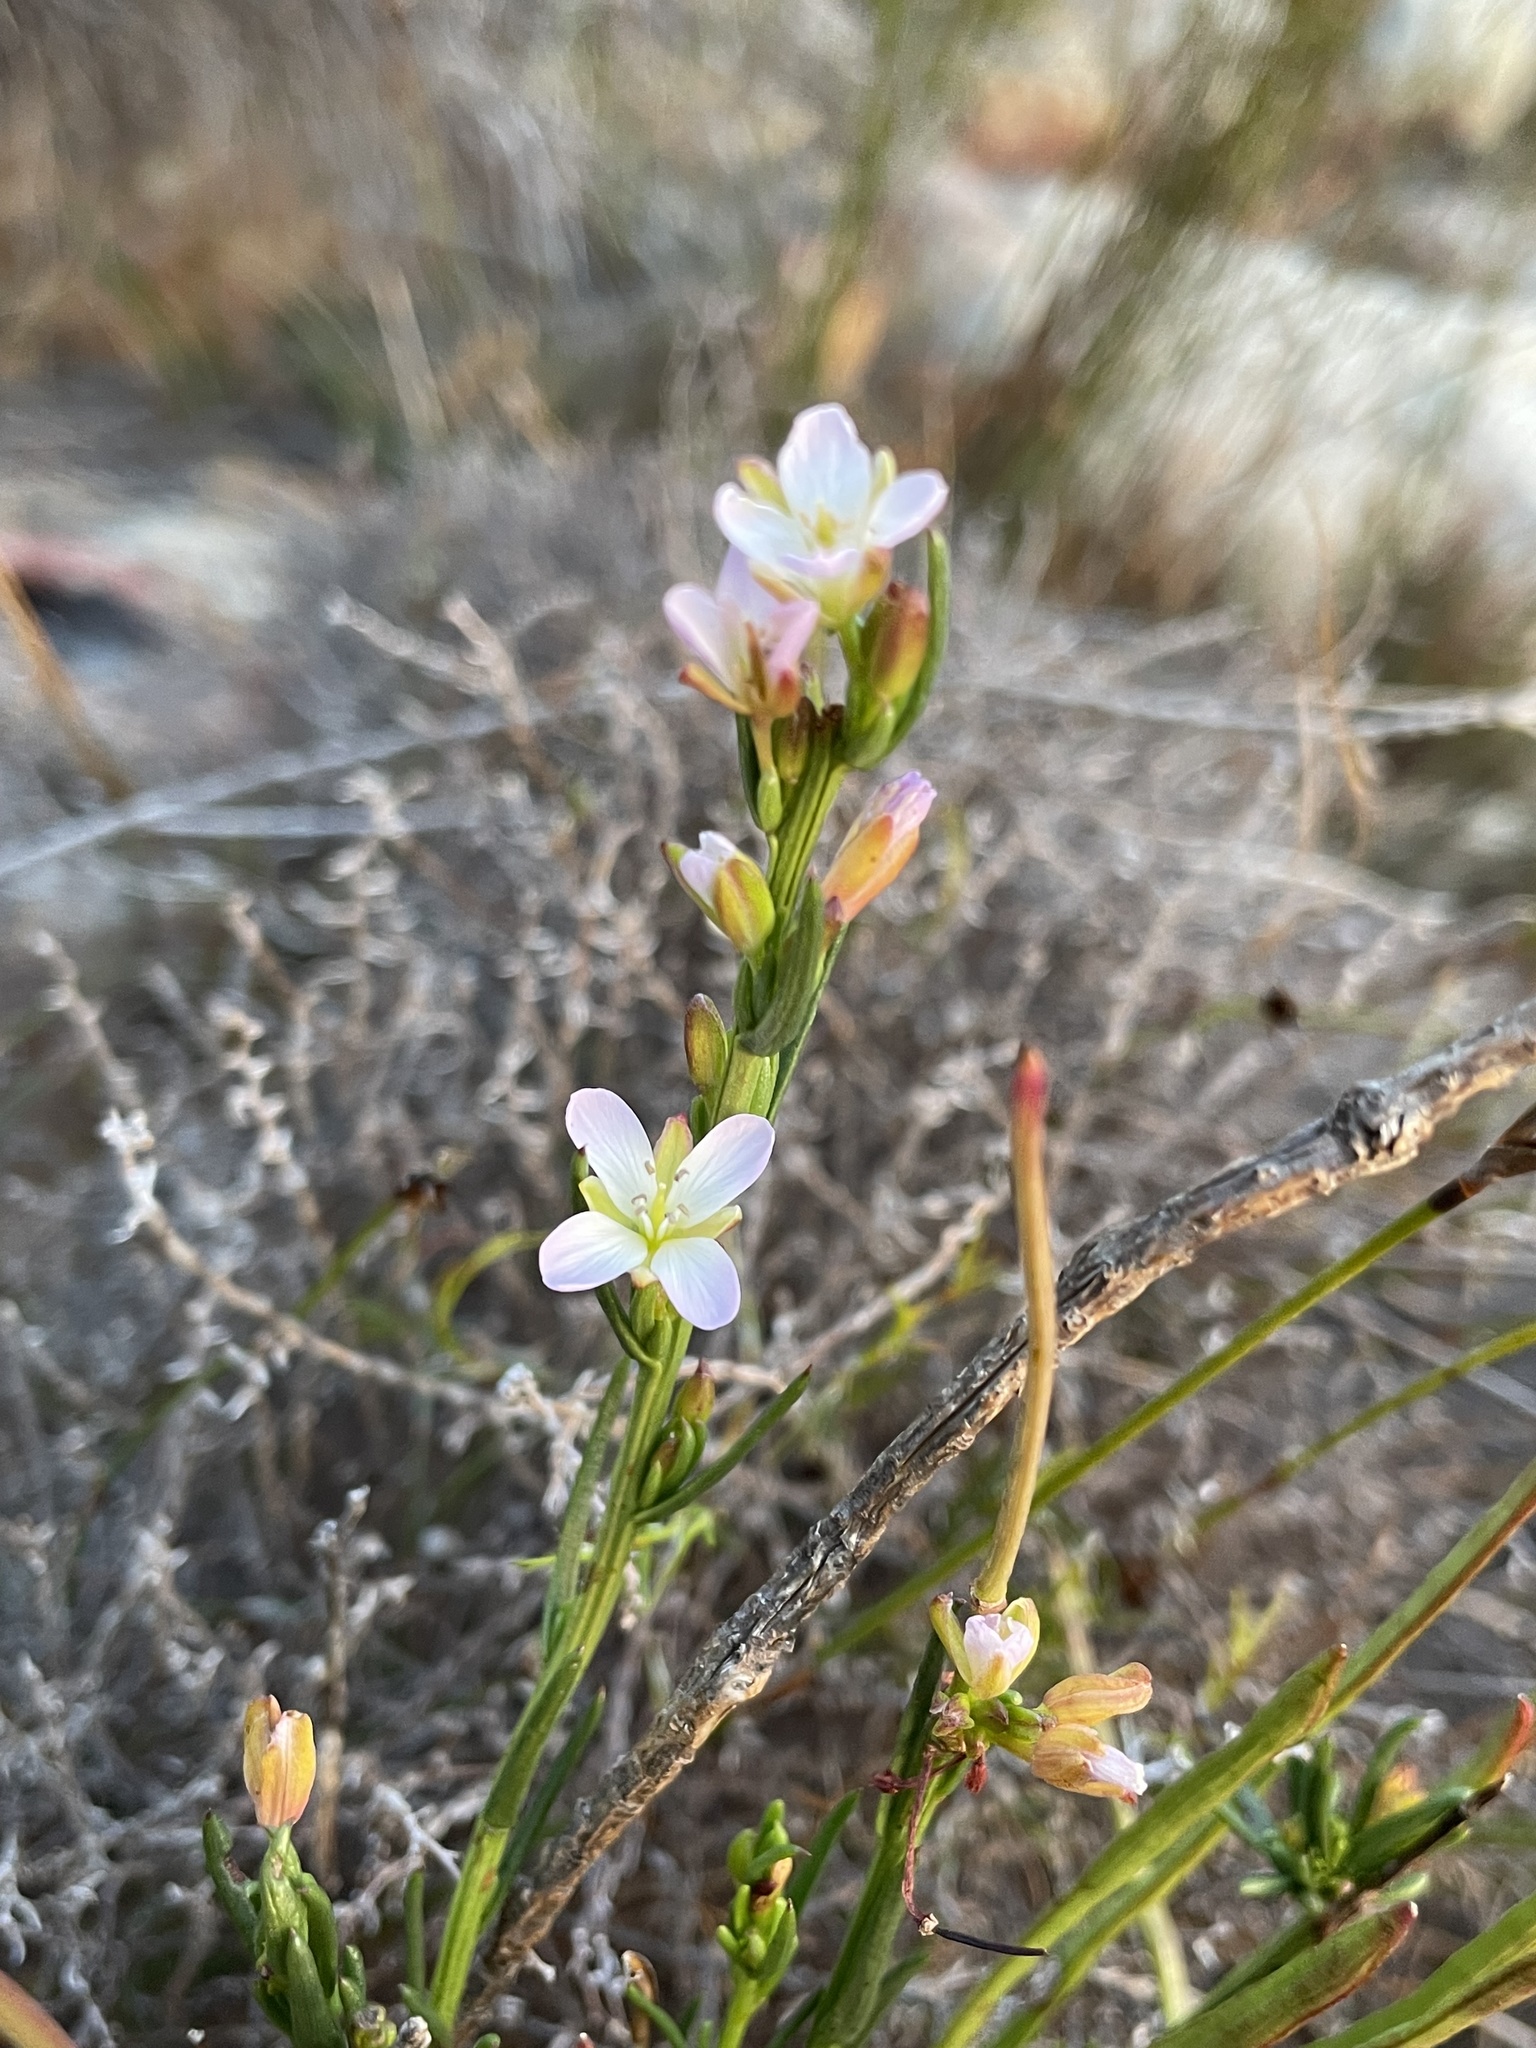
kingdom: Plantae
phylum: Tracheophyta
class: Magnoliopsida
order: Brassicales
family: Brassicaceae
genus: Heliophila
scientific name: Heliophila scoparia
